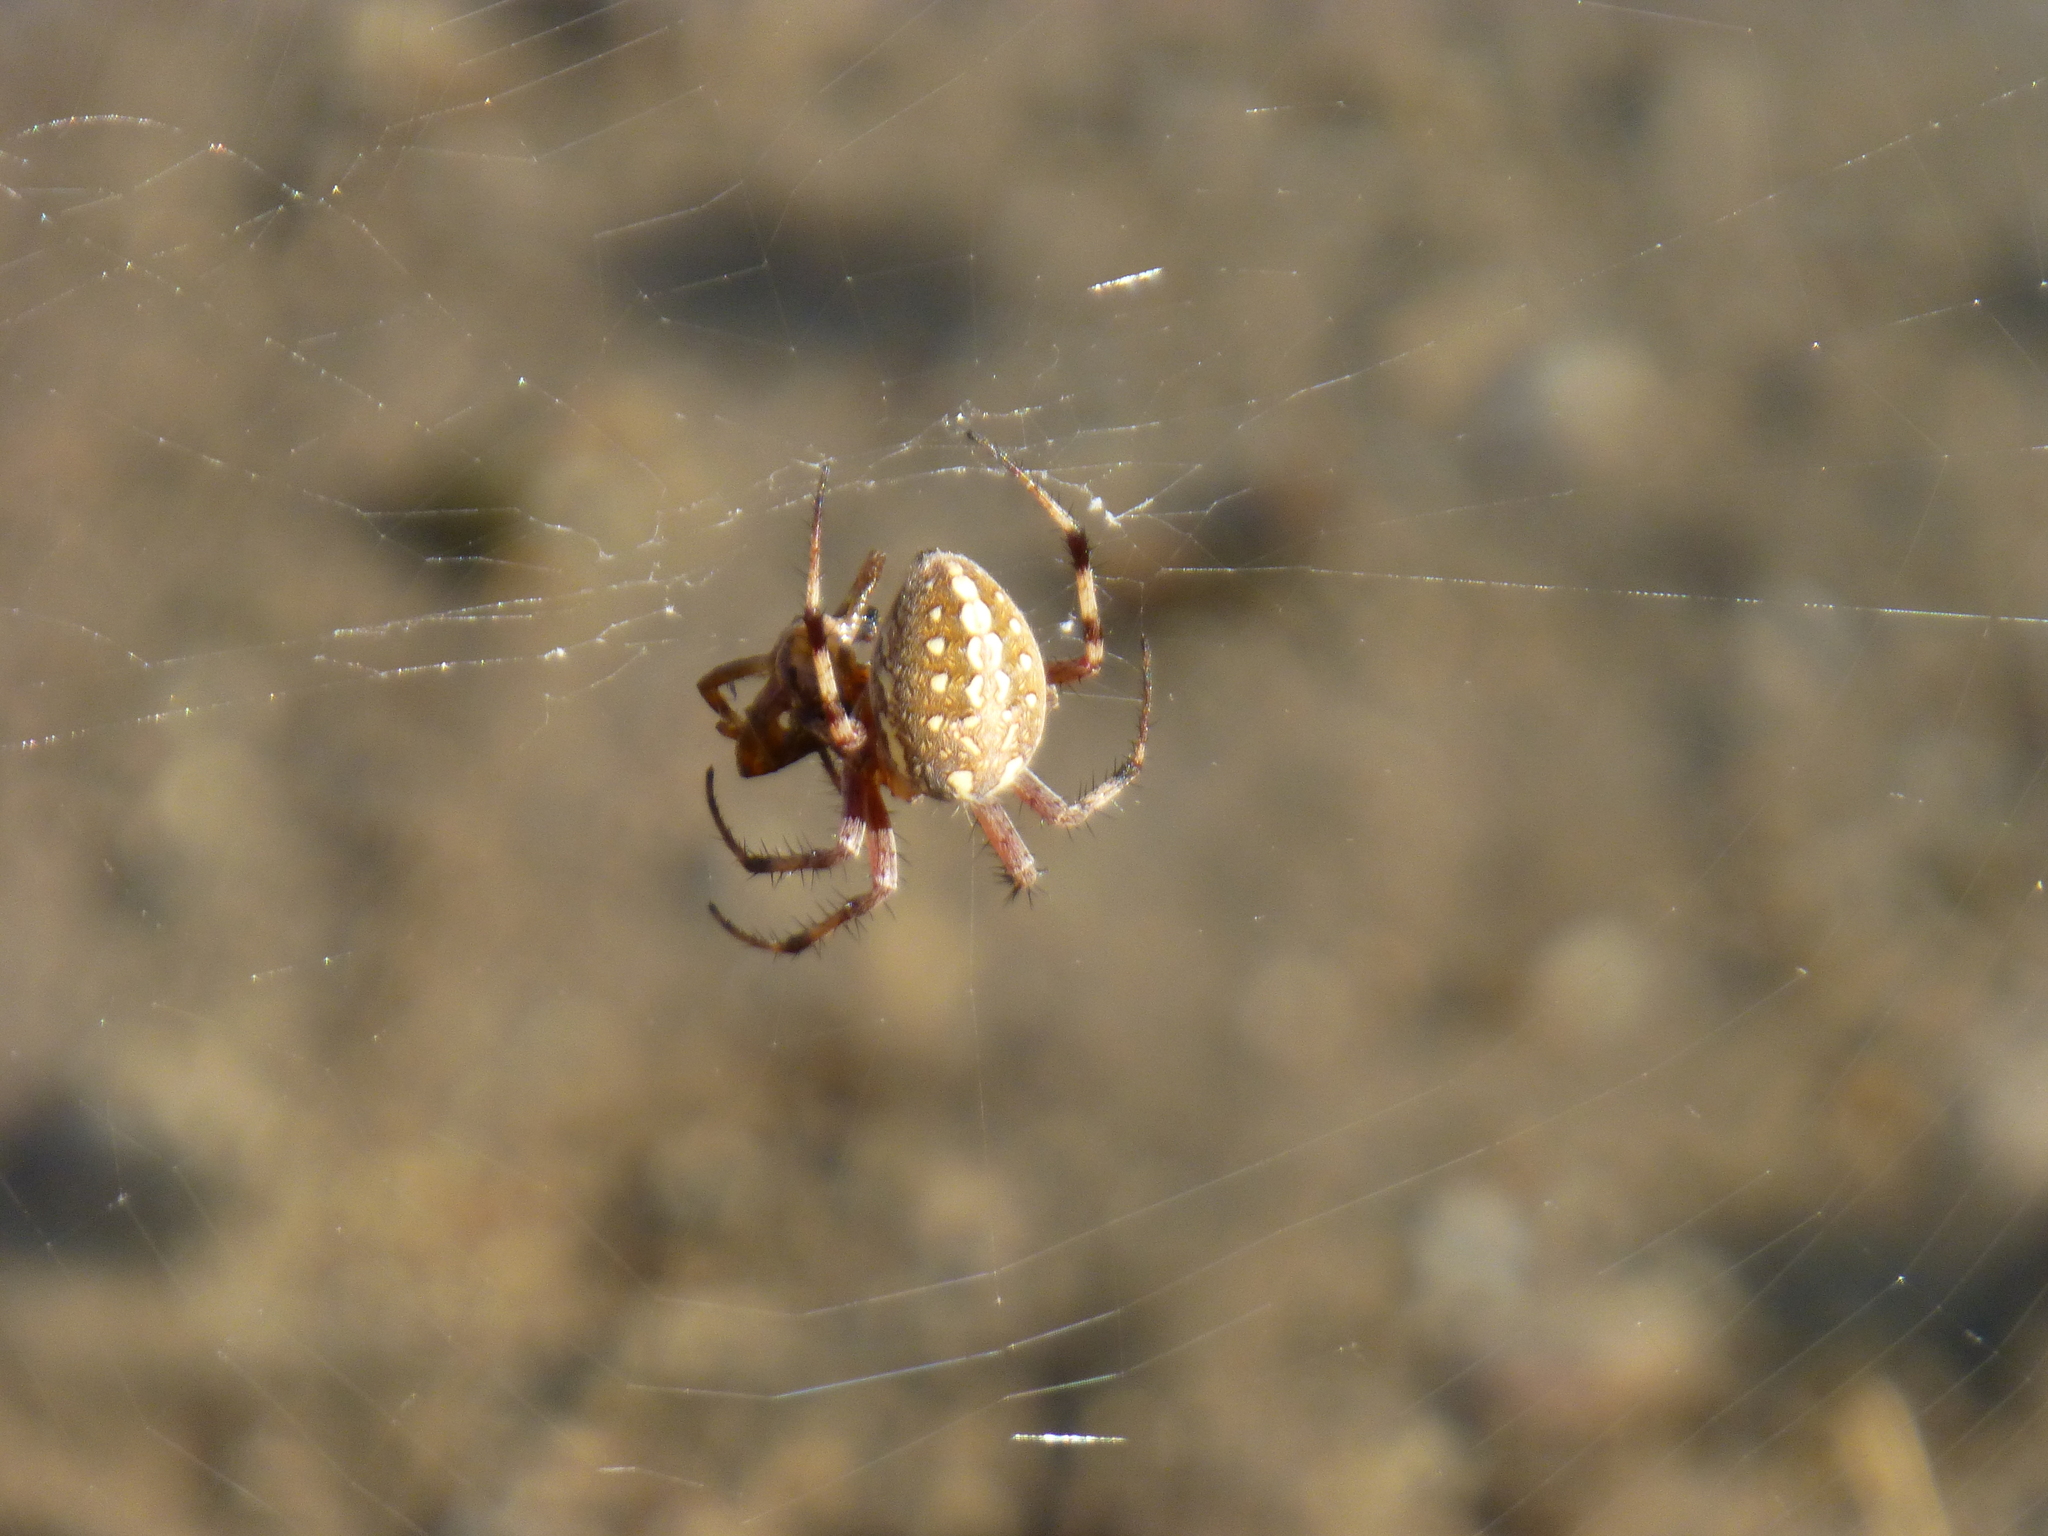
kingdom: Animalia
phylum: Arthropoda
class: Arachnida
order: Araneae
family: Araneidae
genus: Neoscona
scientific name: Neoscona oaxacensis
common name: Orb weavers
